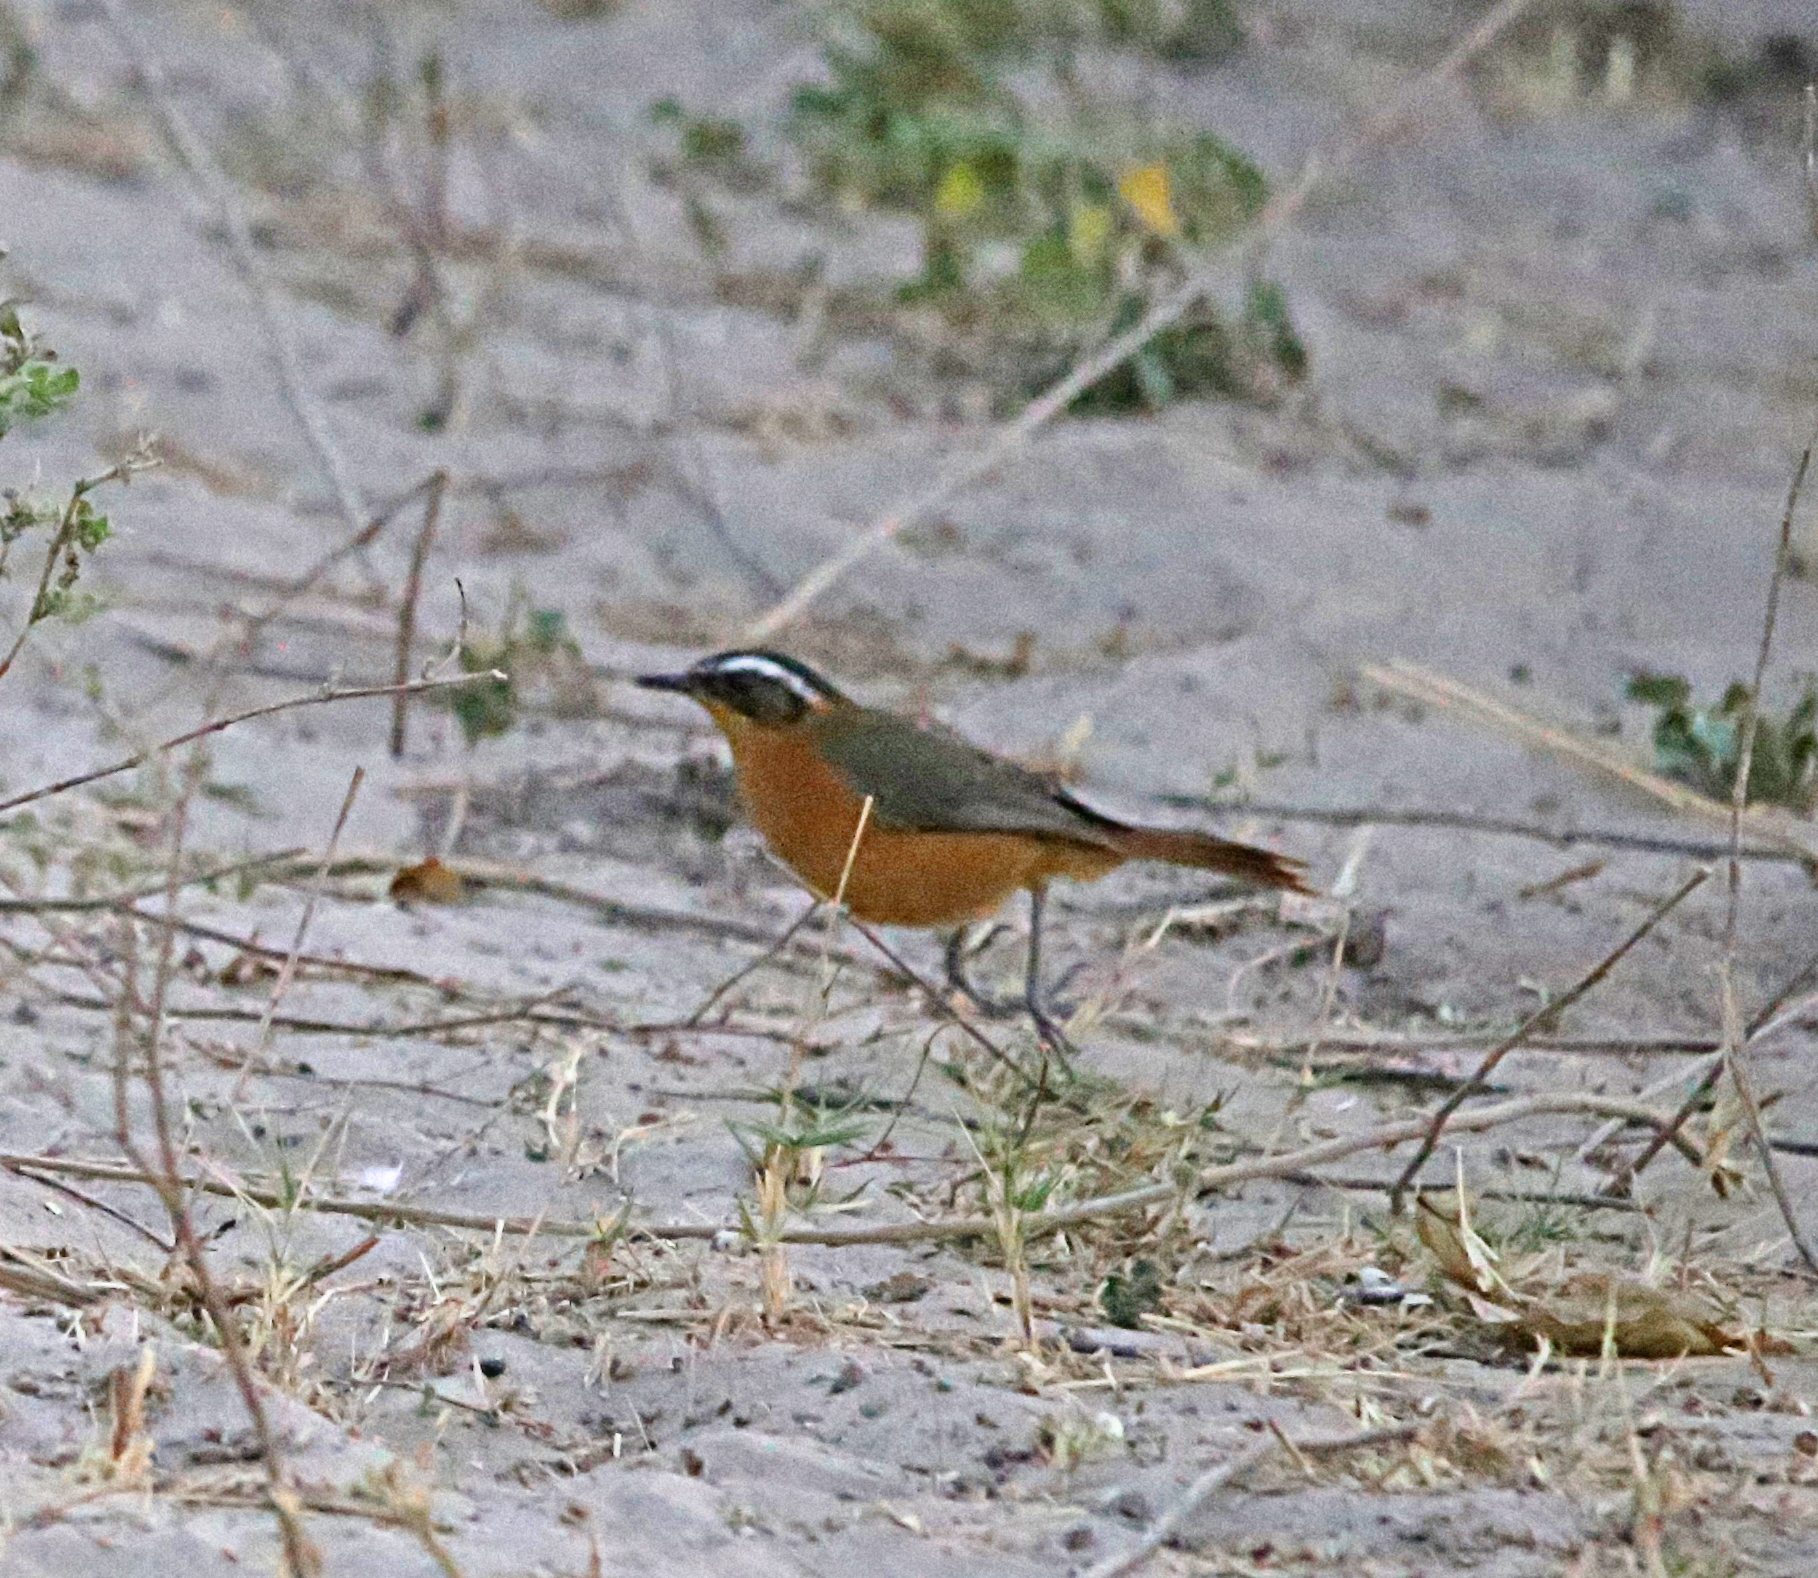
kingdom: Animalia
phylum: Chordata
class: Aves
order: Passeriformes
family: Muscicapidae
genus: Cossypha
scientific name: Cossypha heuglini
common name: White-browed robin-chat
